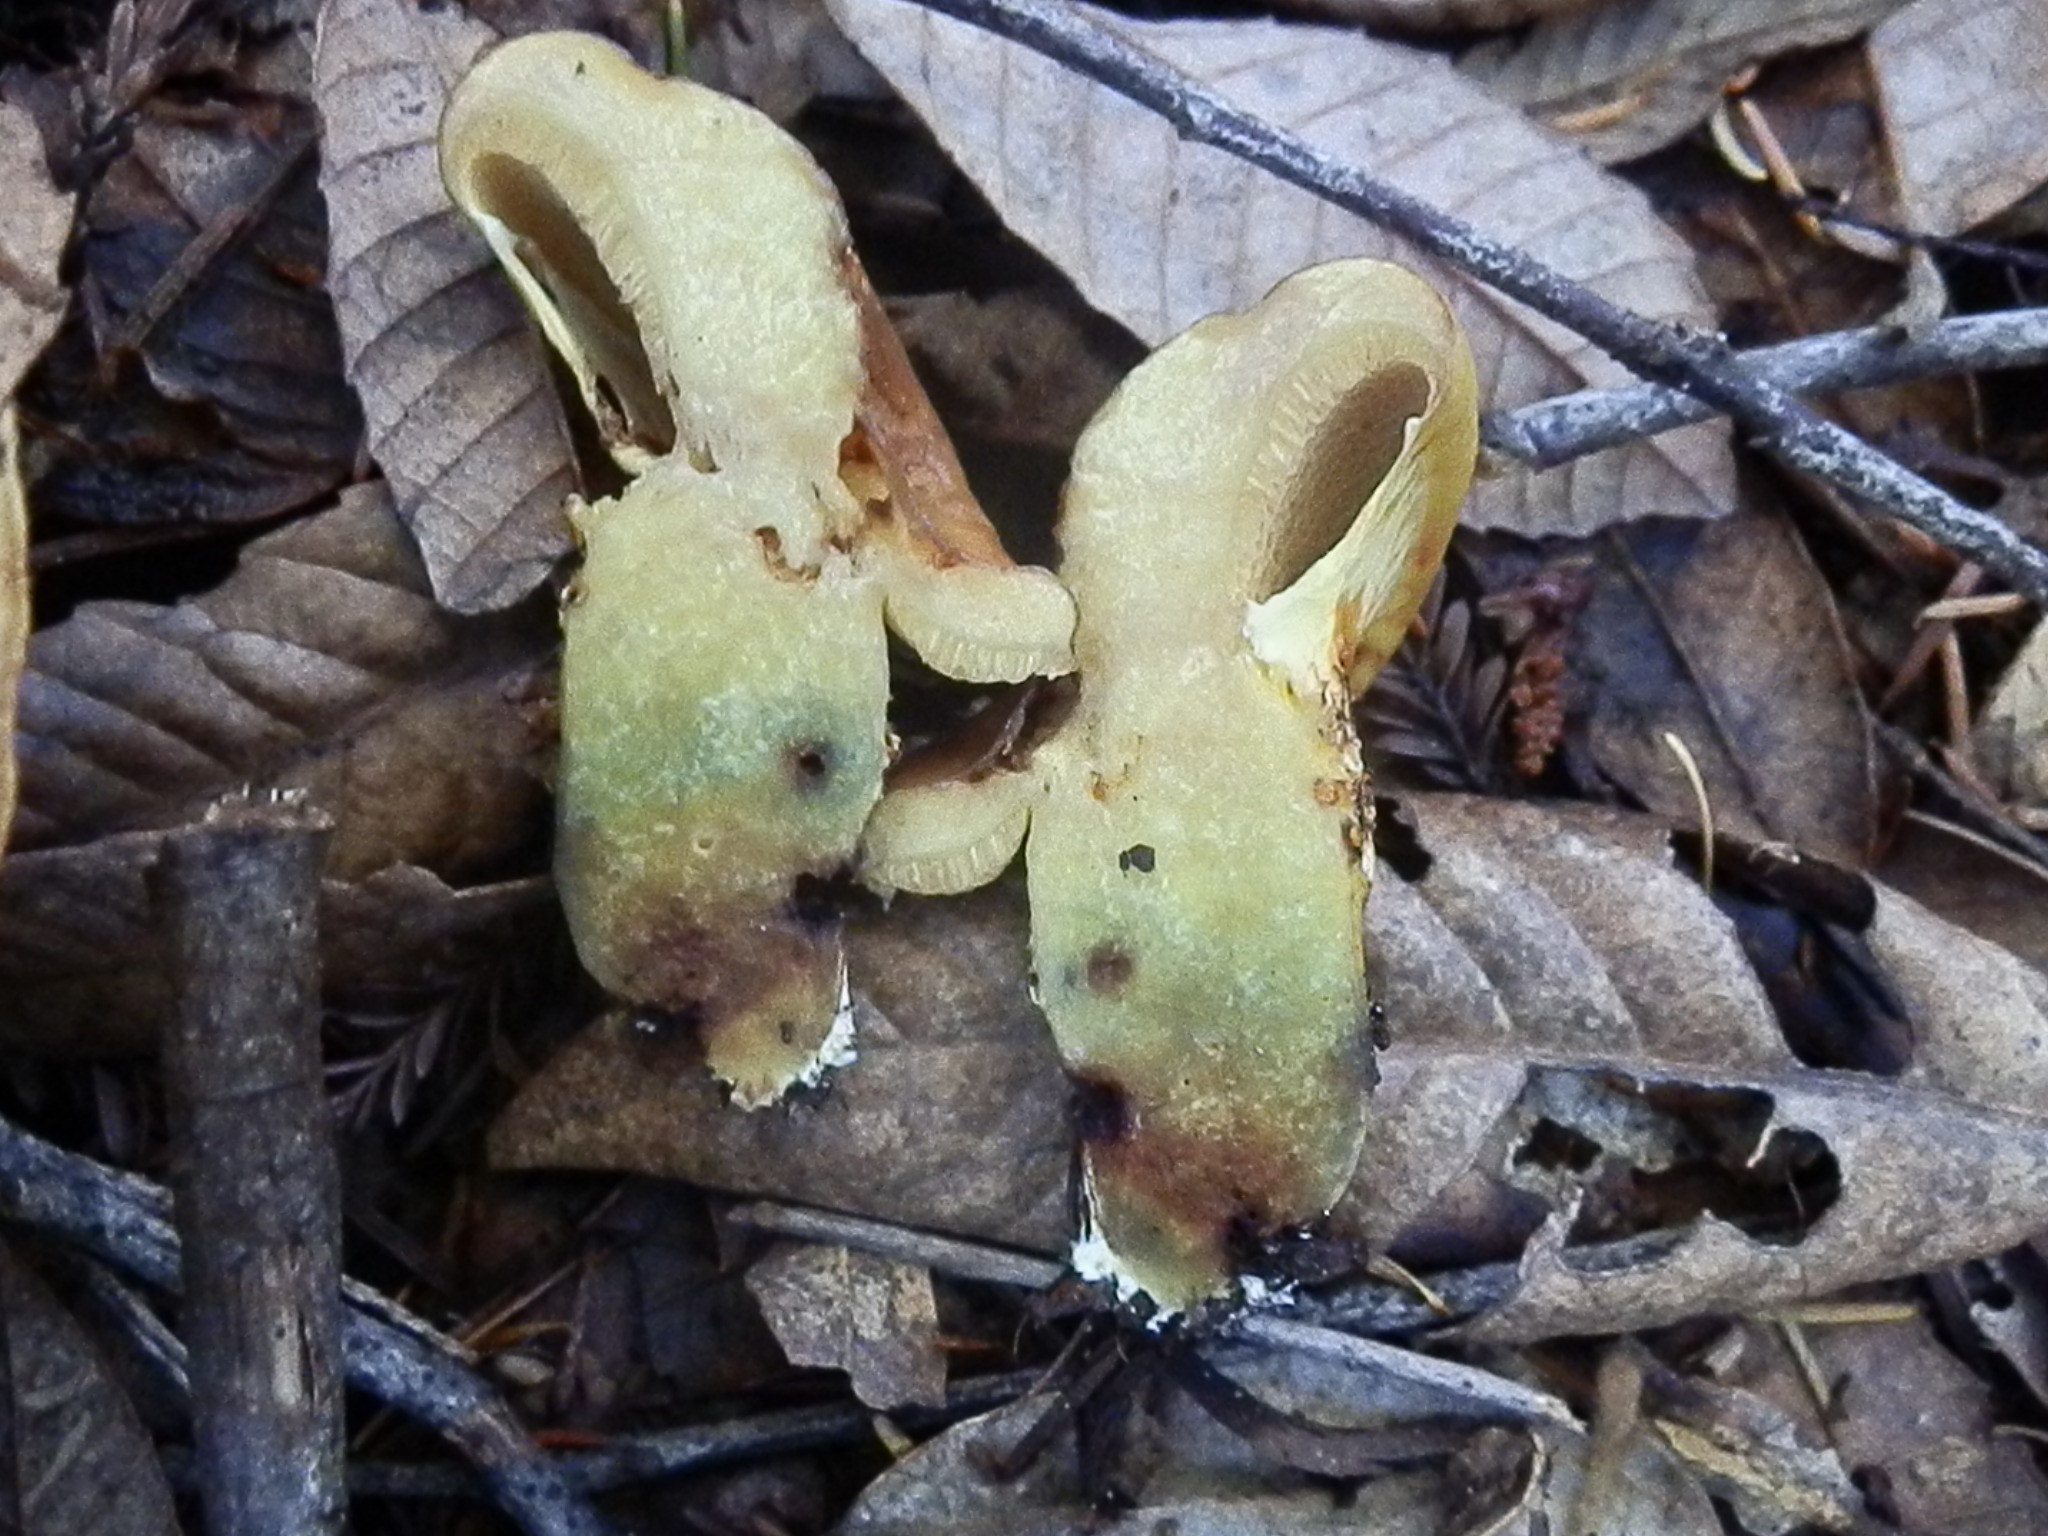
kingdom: Fungi
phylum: Basidiomycota
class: Agaricomycetes
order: Boletales
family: Suillaceae
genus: Suillus
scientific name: Suillus caerulescens
